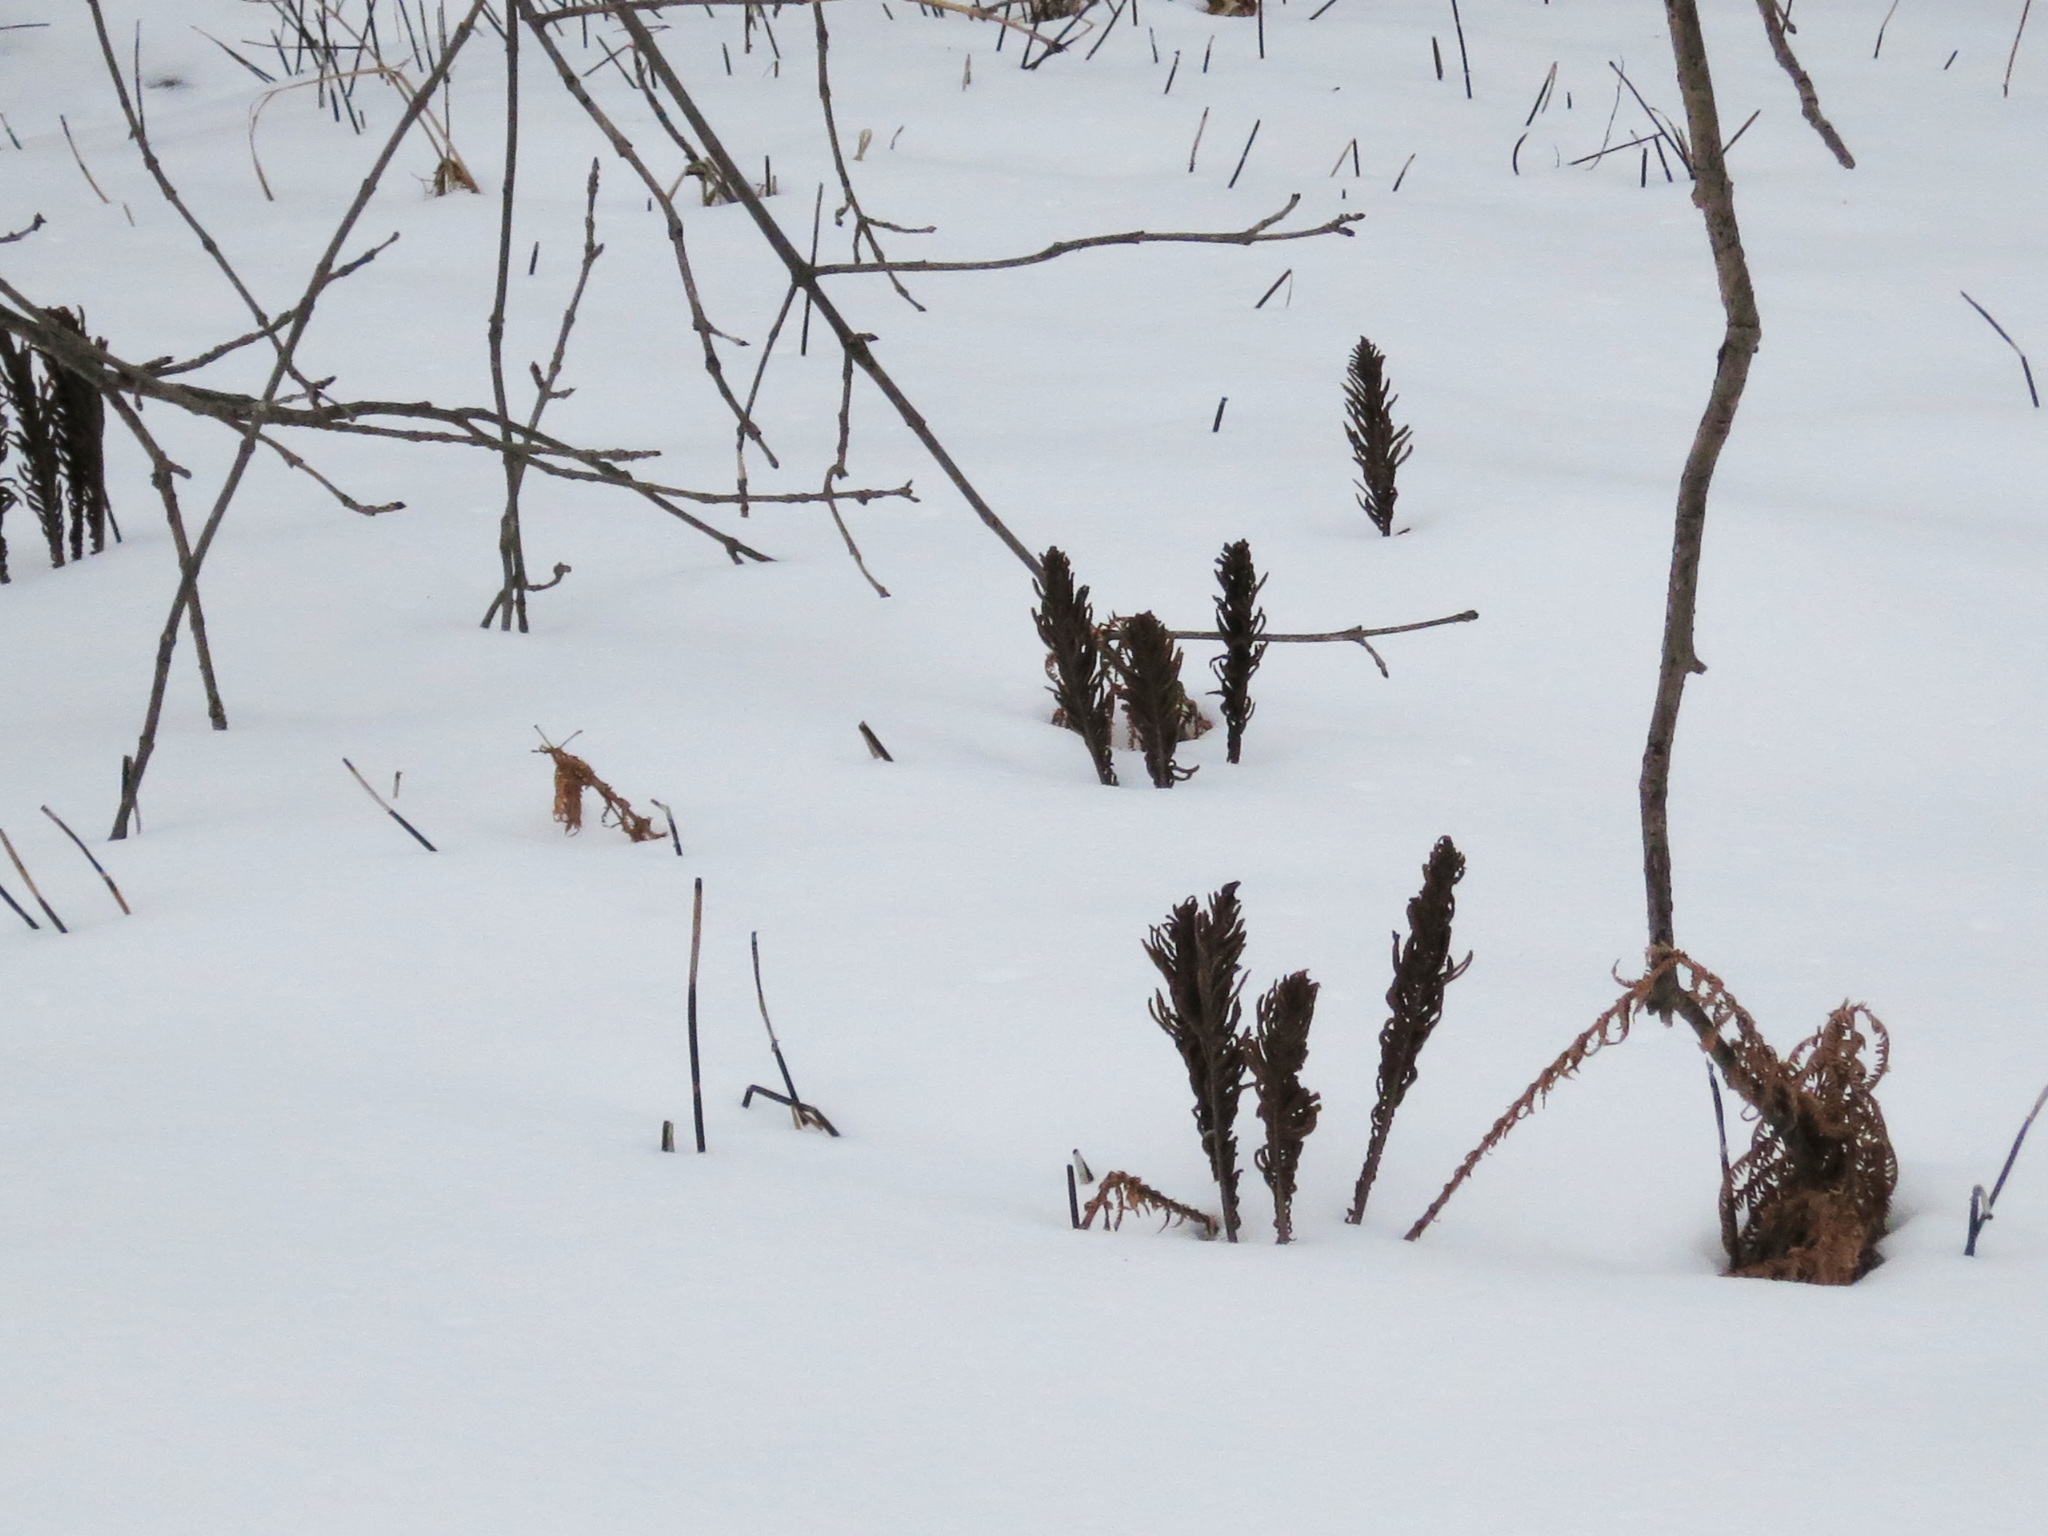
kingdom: Plantae
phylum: Tracheophyta
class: Polypodiopsida
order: Polypodiales
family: Onocleaceae
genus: Matteuccia
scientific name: Matteuccia struthiopteris
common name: Ostrich fern
